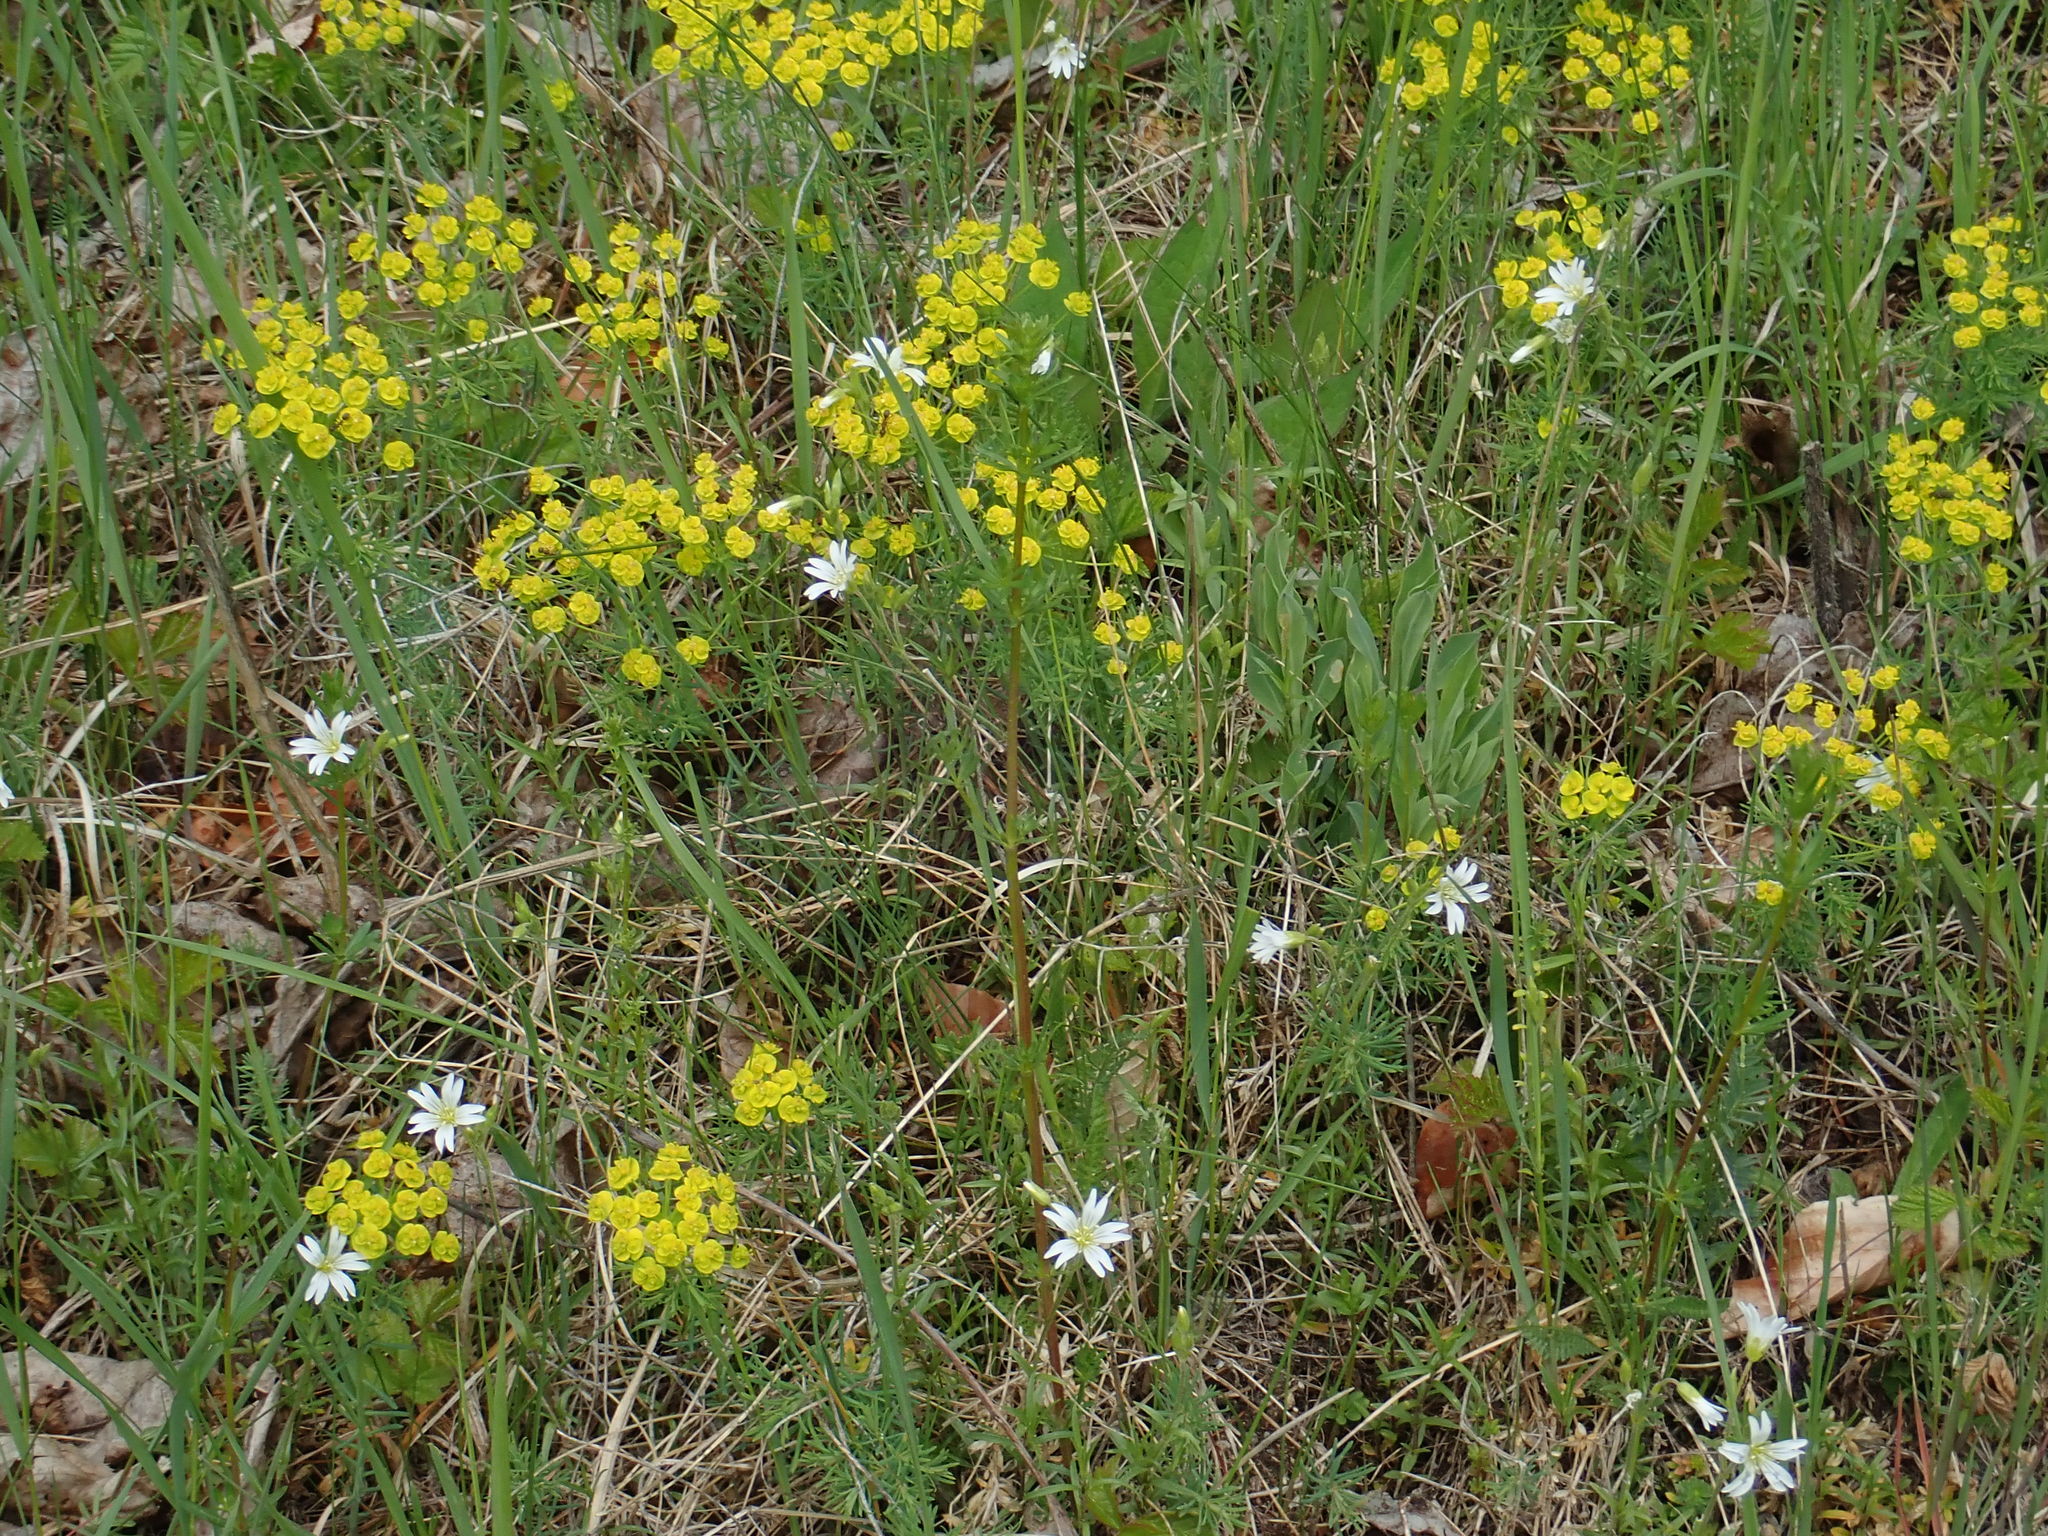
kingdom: Plantae
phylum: Tracheophyta
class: Magnoliopsida
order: Malpighiales
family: Euphorbiaceae
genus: Euphorbia
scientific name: Euphorbia cyparissias
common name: Cypress spurge
